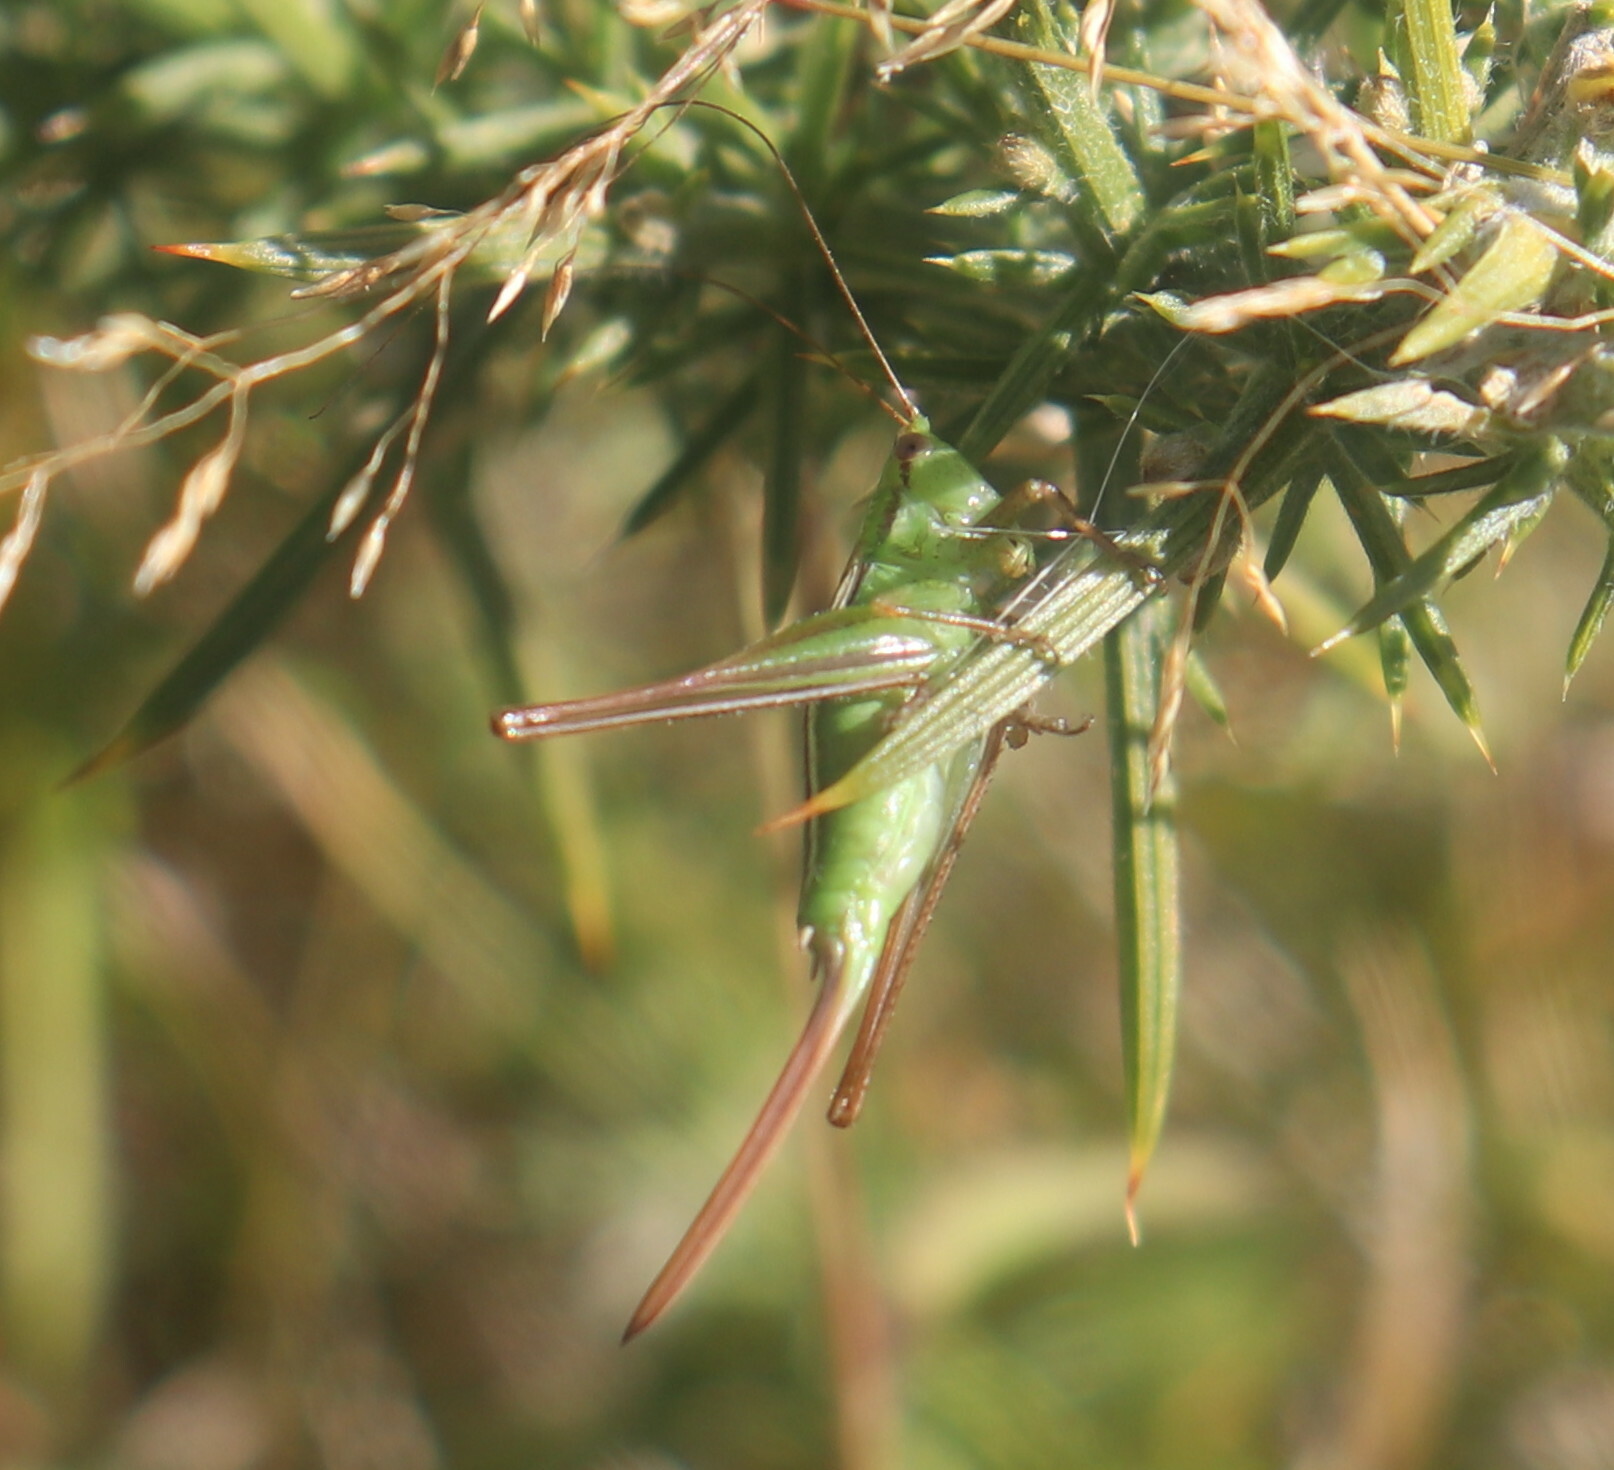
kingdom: Animalia
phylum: Arthropoda
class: Insecta
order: Orthoptera
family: Tettigoniidae
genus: Conocephalus
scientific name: Conocephalus bilineatus
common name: Small meadow katydid
